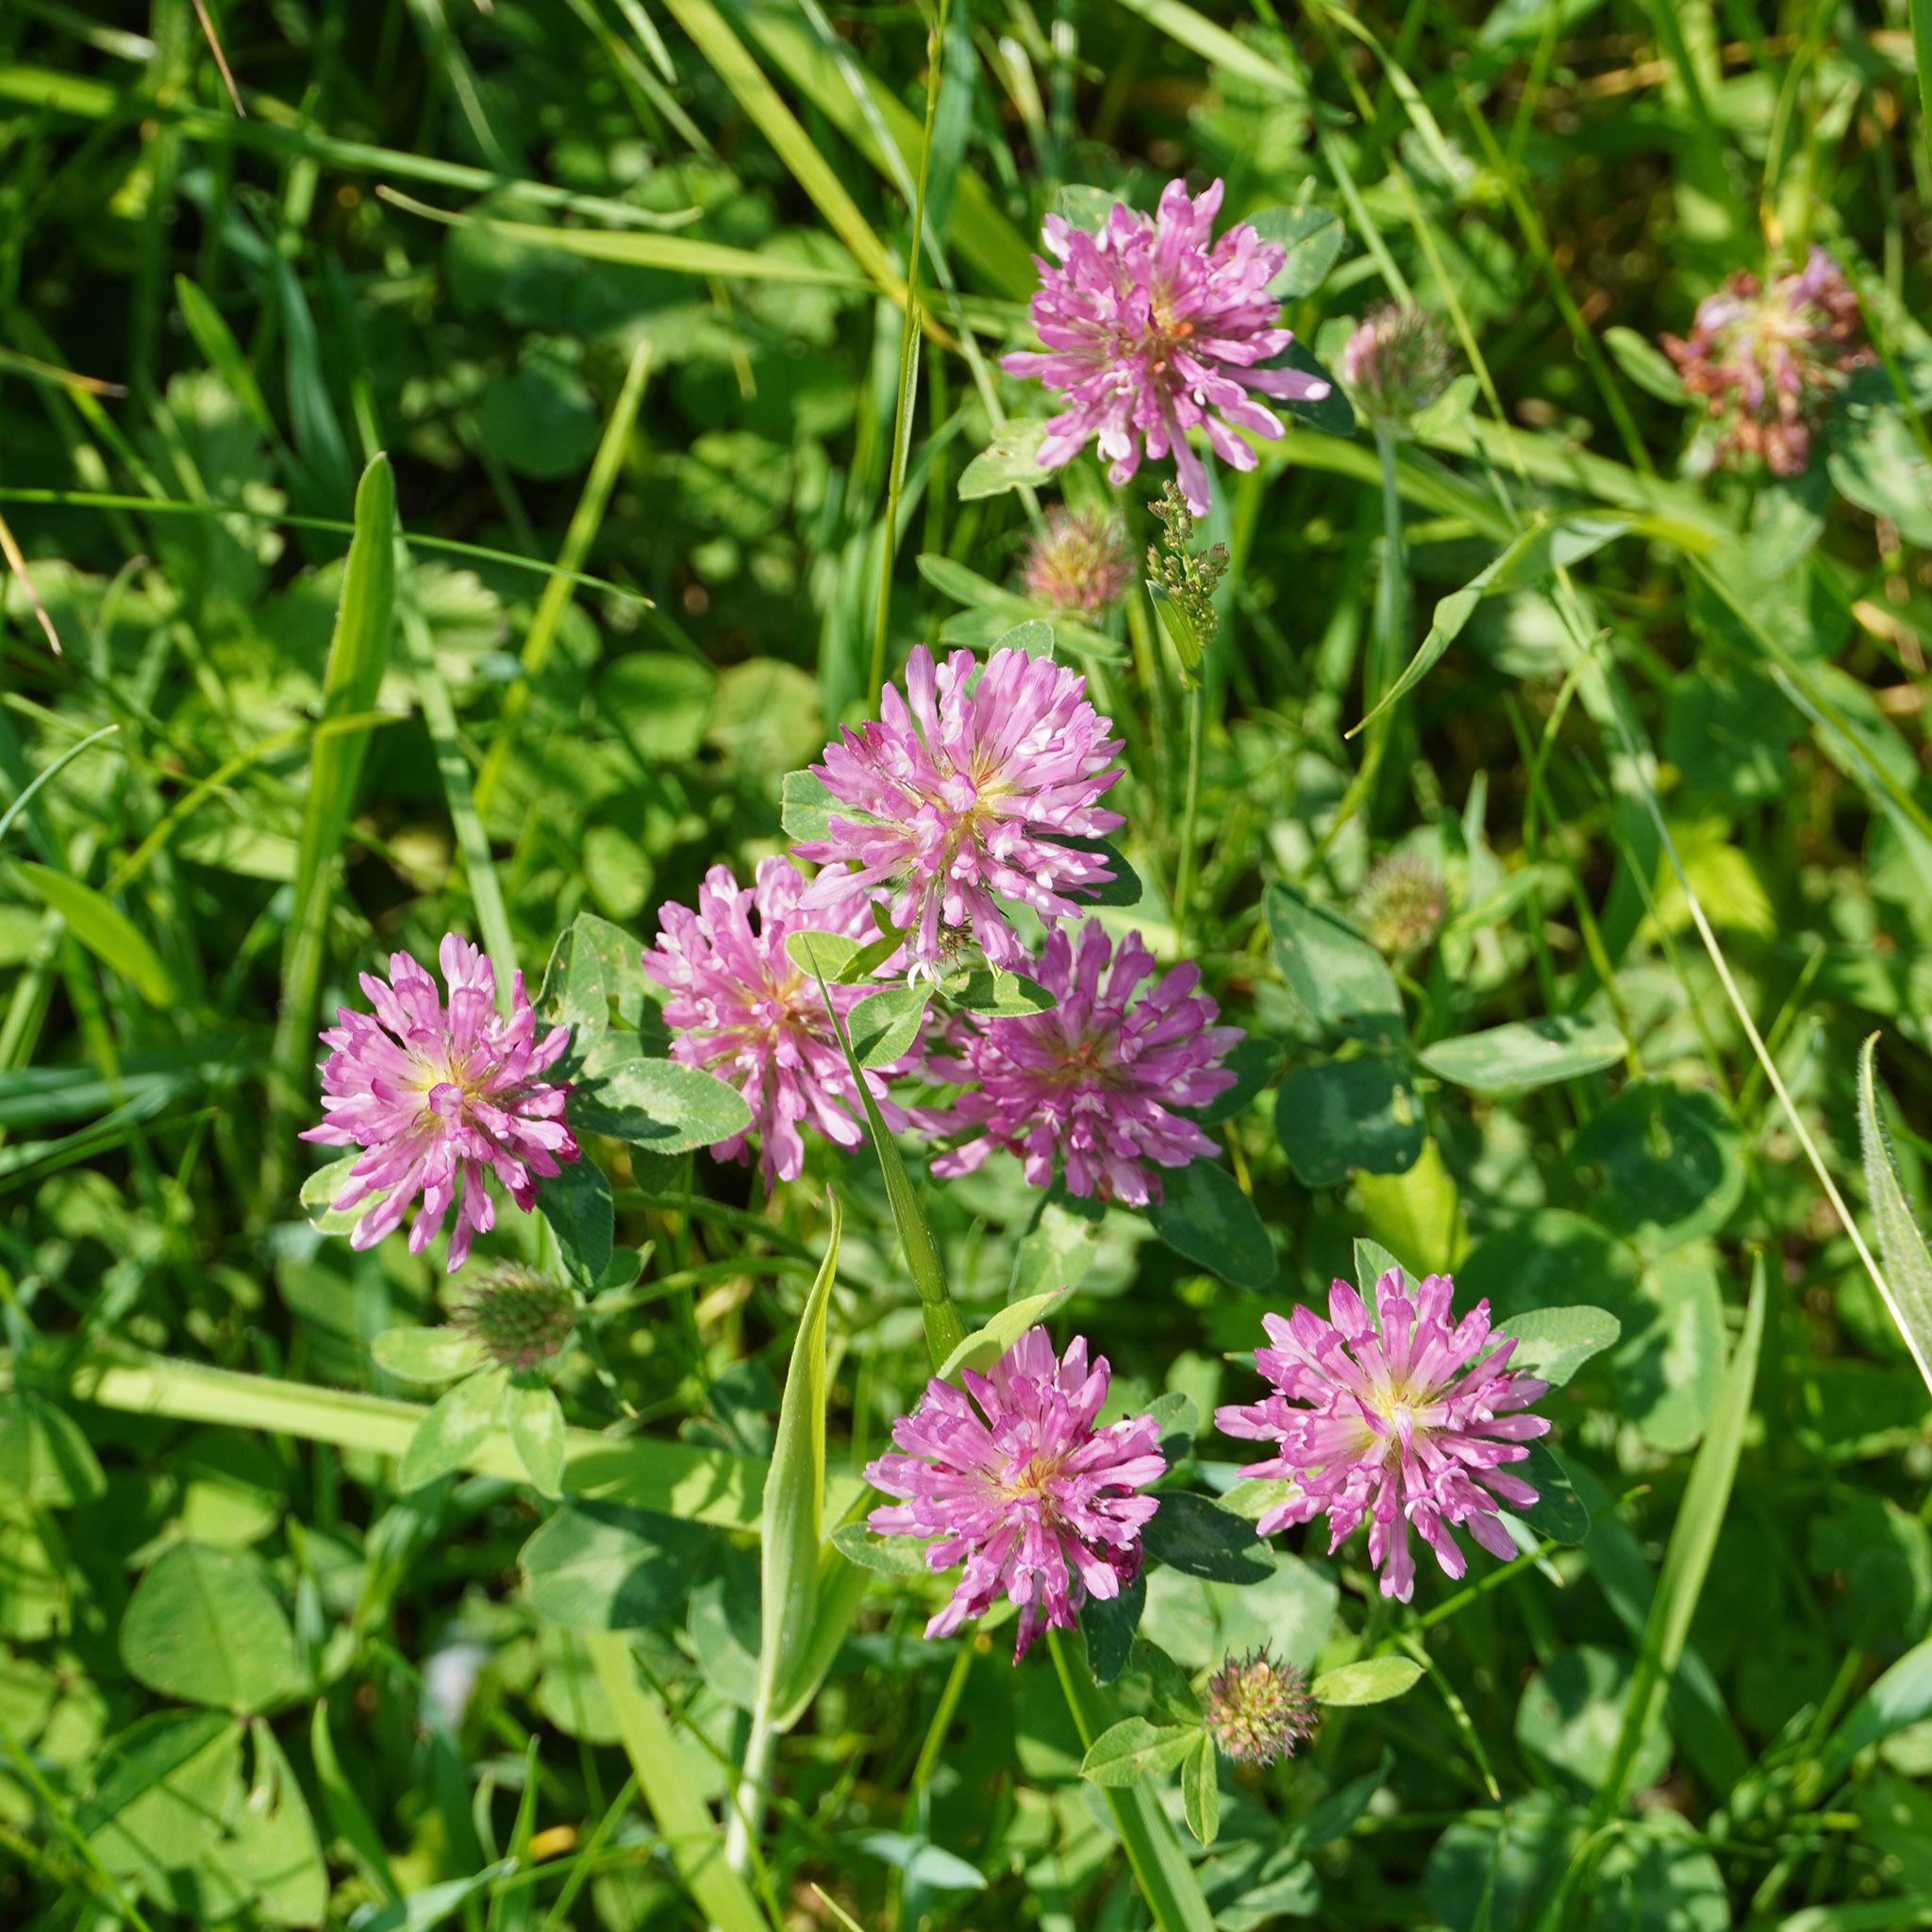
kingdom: Plantae
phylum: Tracheophyta
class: Magnoliopsida
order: Fabales
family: Fabaceae
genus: Trifolium
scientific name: Trifolium pratense
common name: Red clover
